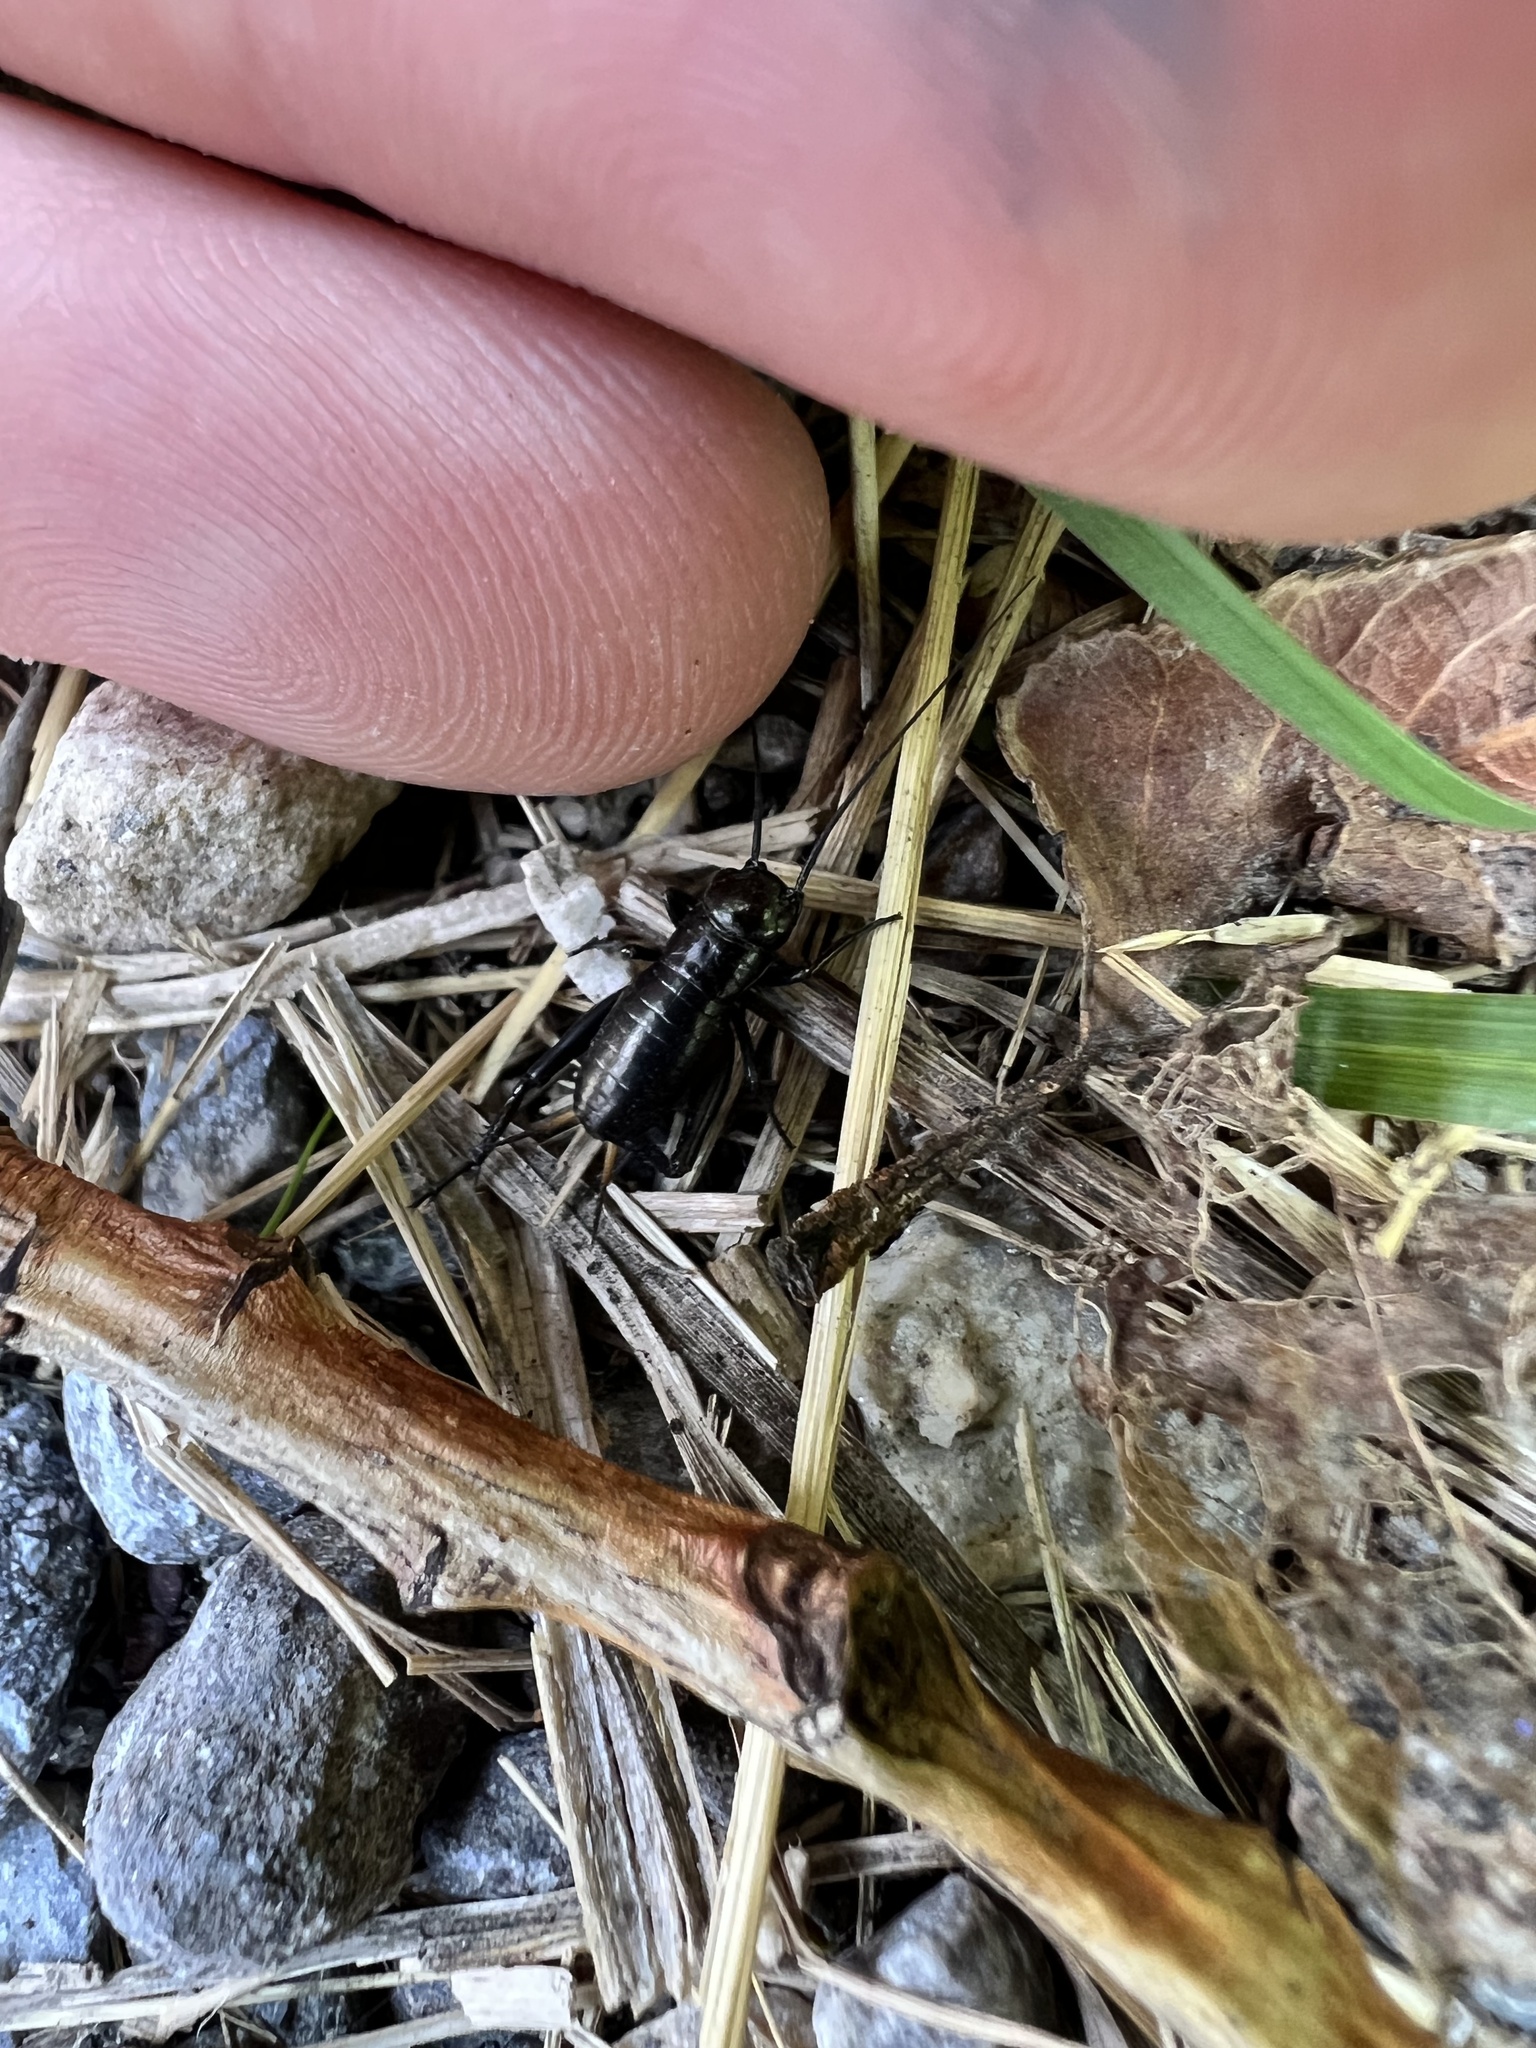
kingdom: Animalia
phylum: Arthropoda
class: Insecta
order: Orthoptera
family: Gryllidae
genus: Gryllus
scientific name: Gryllus campestris
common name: Field cricket
